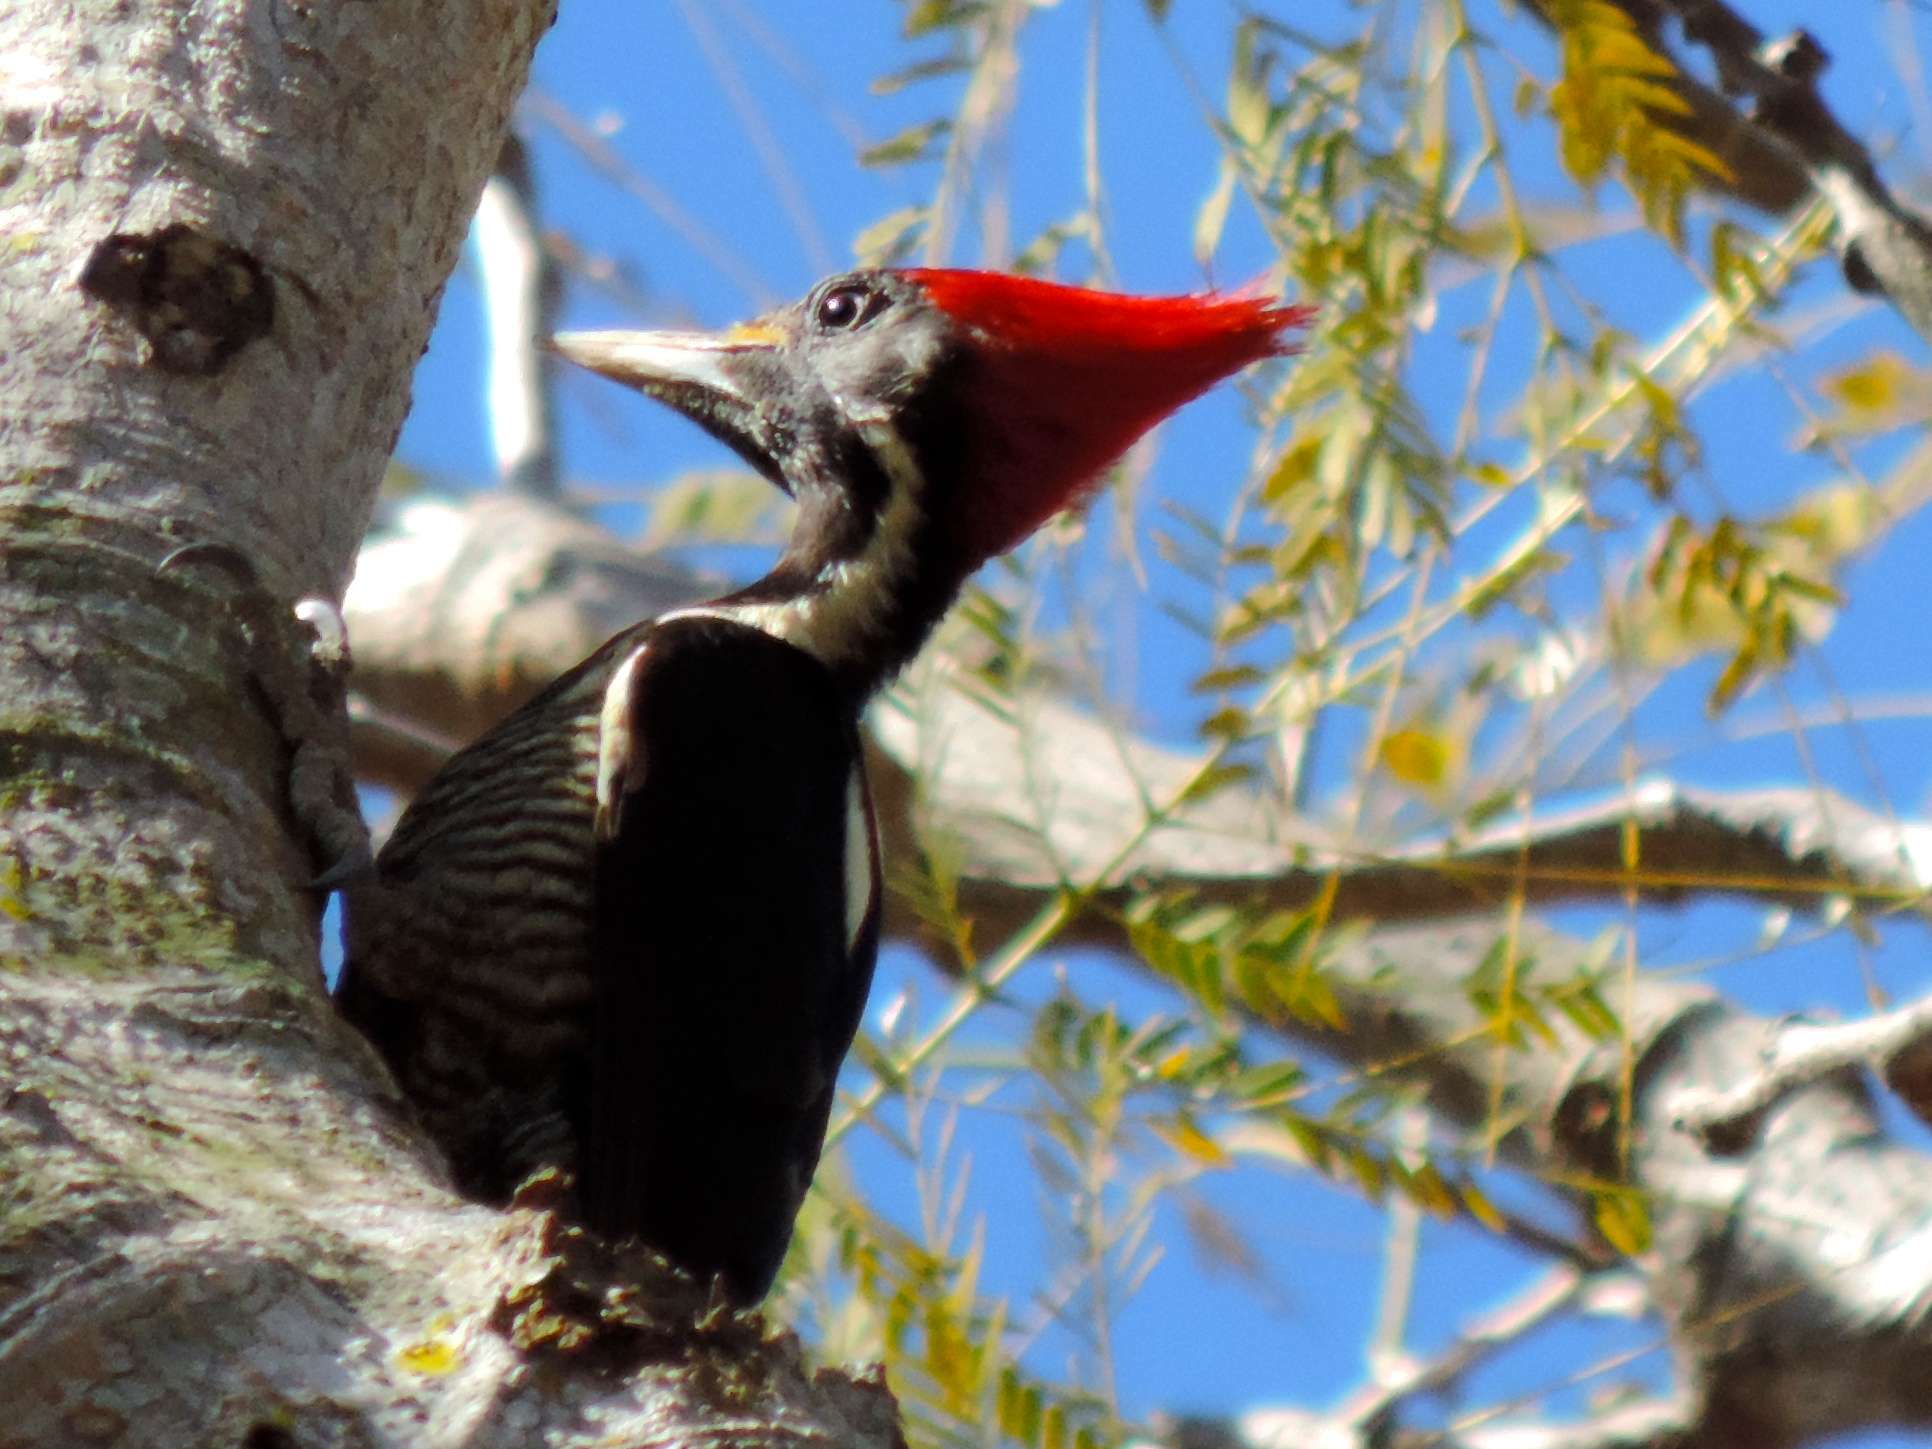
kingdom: Animalia
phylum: Chordata
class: Aves
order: Piciformes
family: Picidae
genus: Dryocopus
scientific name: Dryocopus lineatus
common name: Lineated woodpecker
